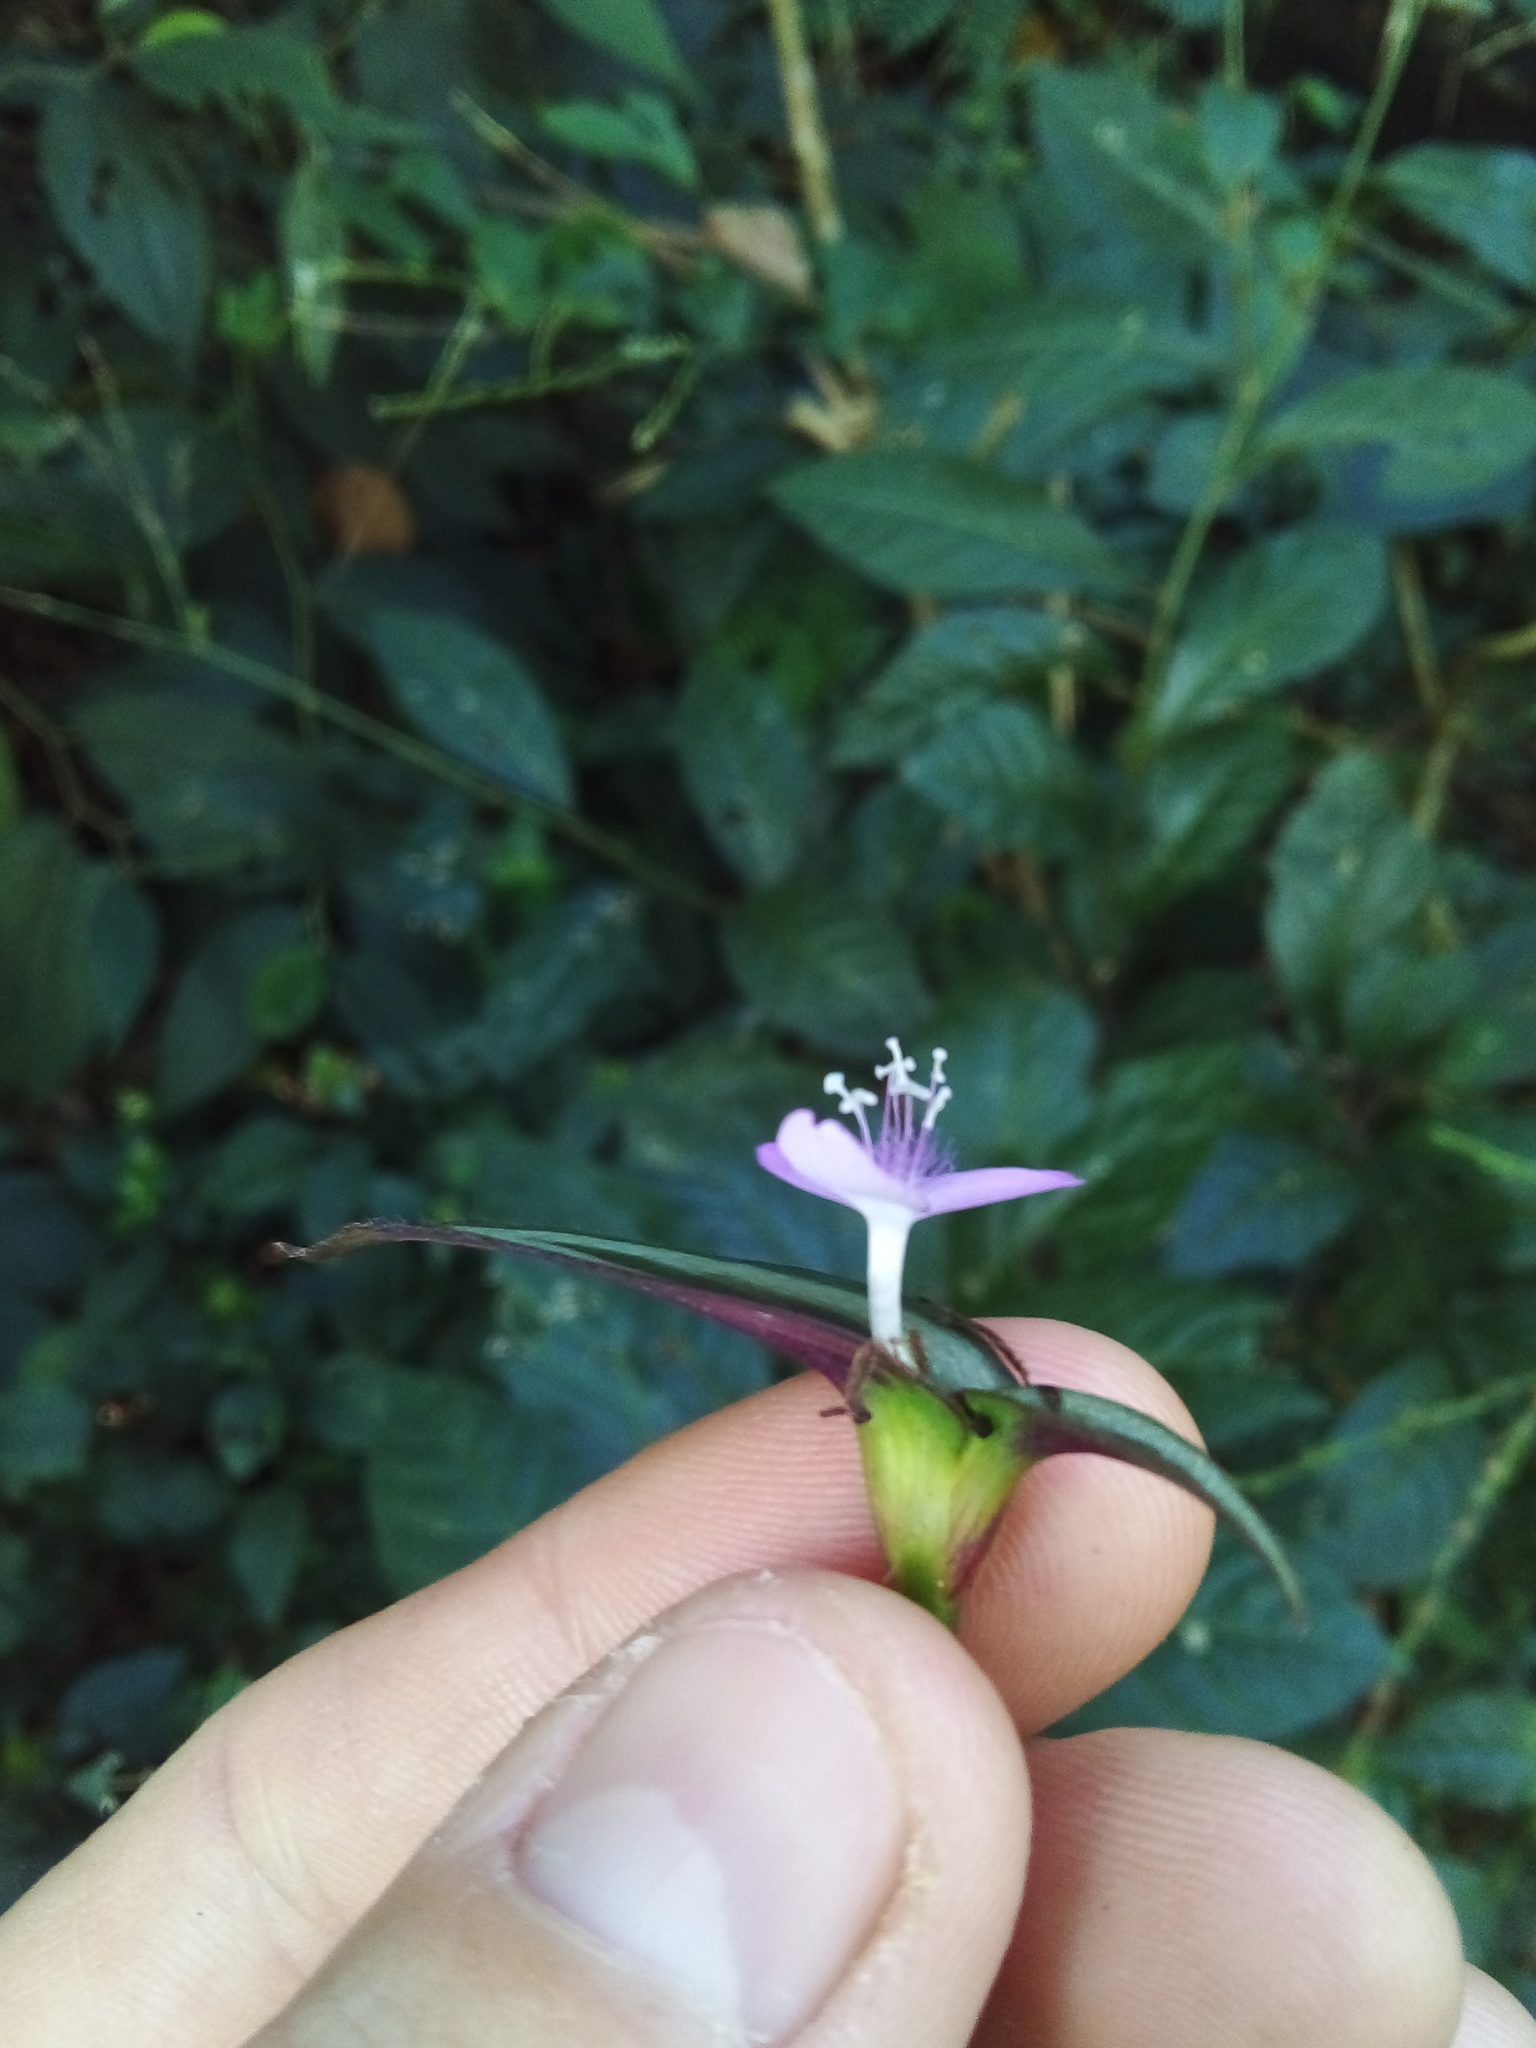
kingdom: Plantae
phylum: Tracheophyta
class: Liliopsida
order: Commelinales
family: Commelinaceae
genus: Tradescantia
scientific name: Tradescantia zebrina
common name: Inchplant
